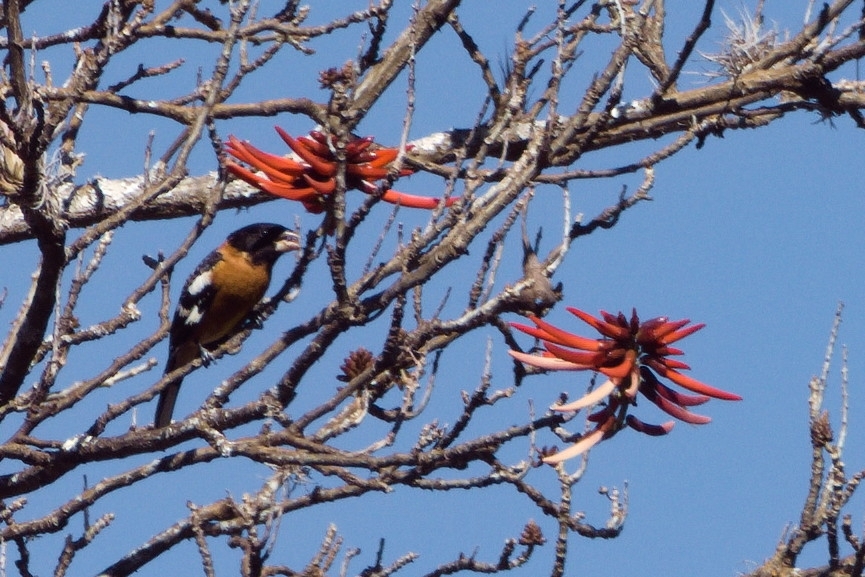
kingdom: Animalia
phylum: Chordata
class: Aves
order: Passeriformes
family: Cardinalidae
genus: Pheucticus
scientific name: Pheucticus melanocephalus
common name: Black-headed grosbeak
